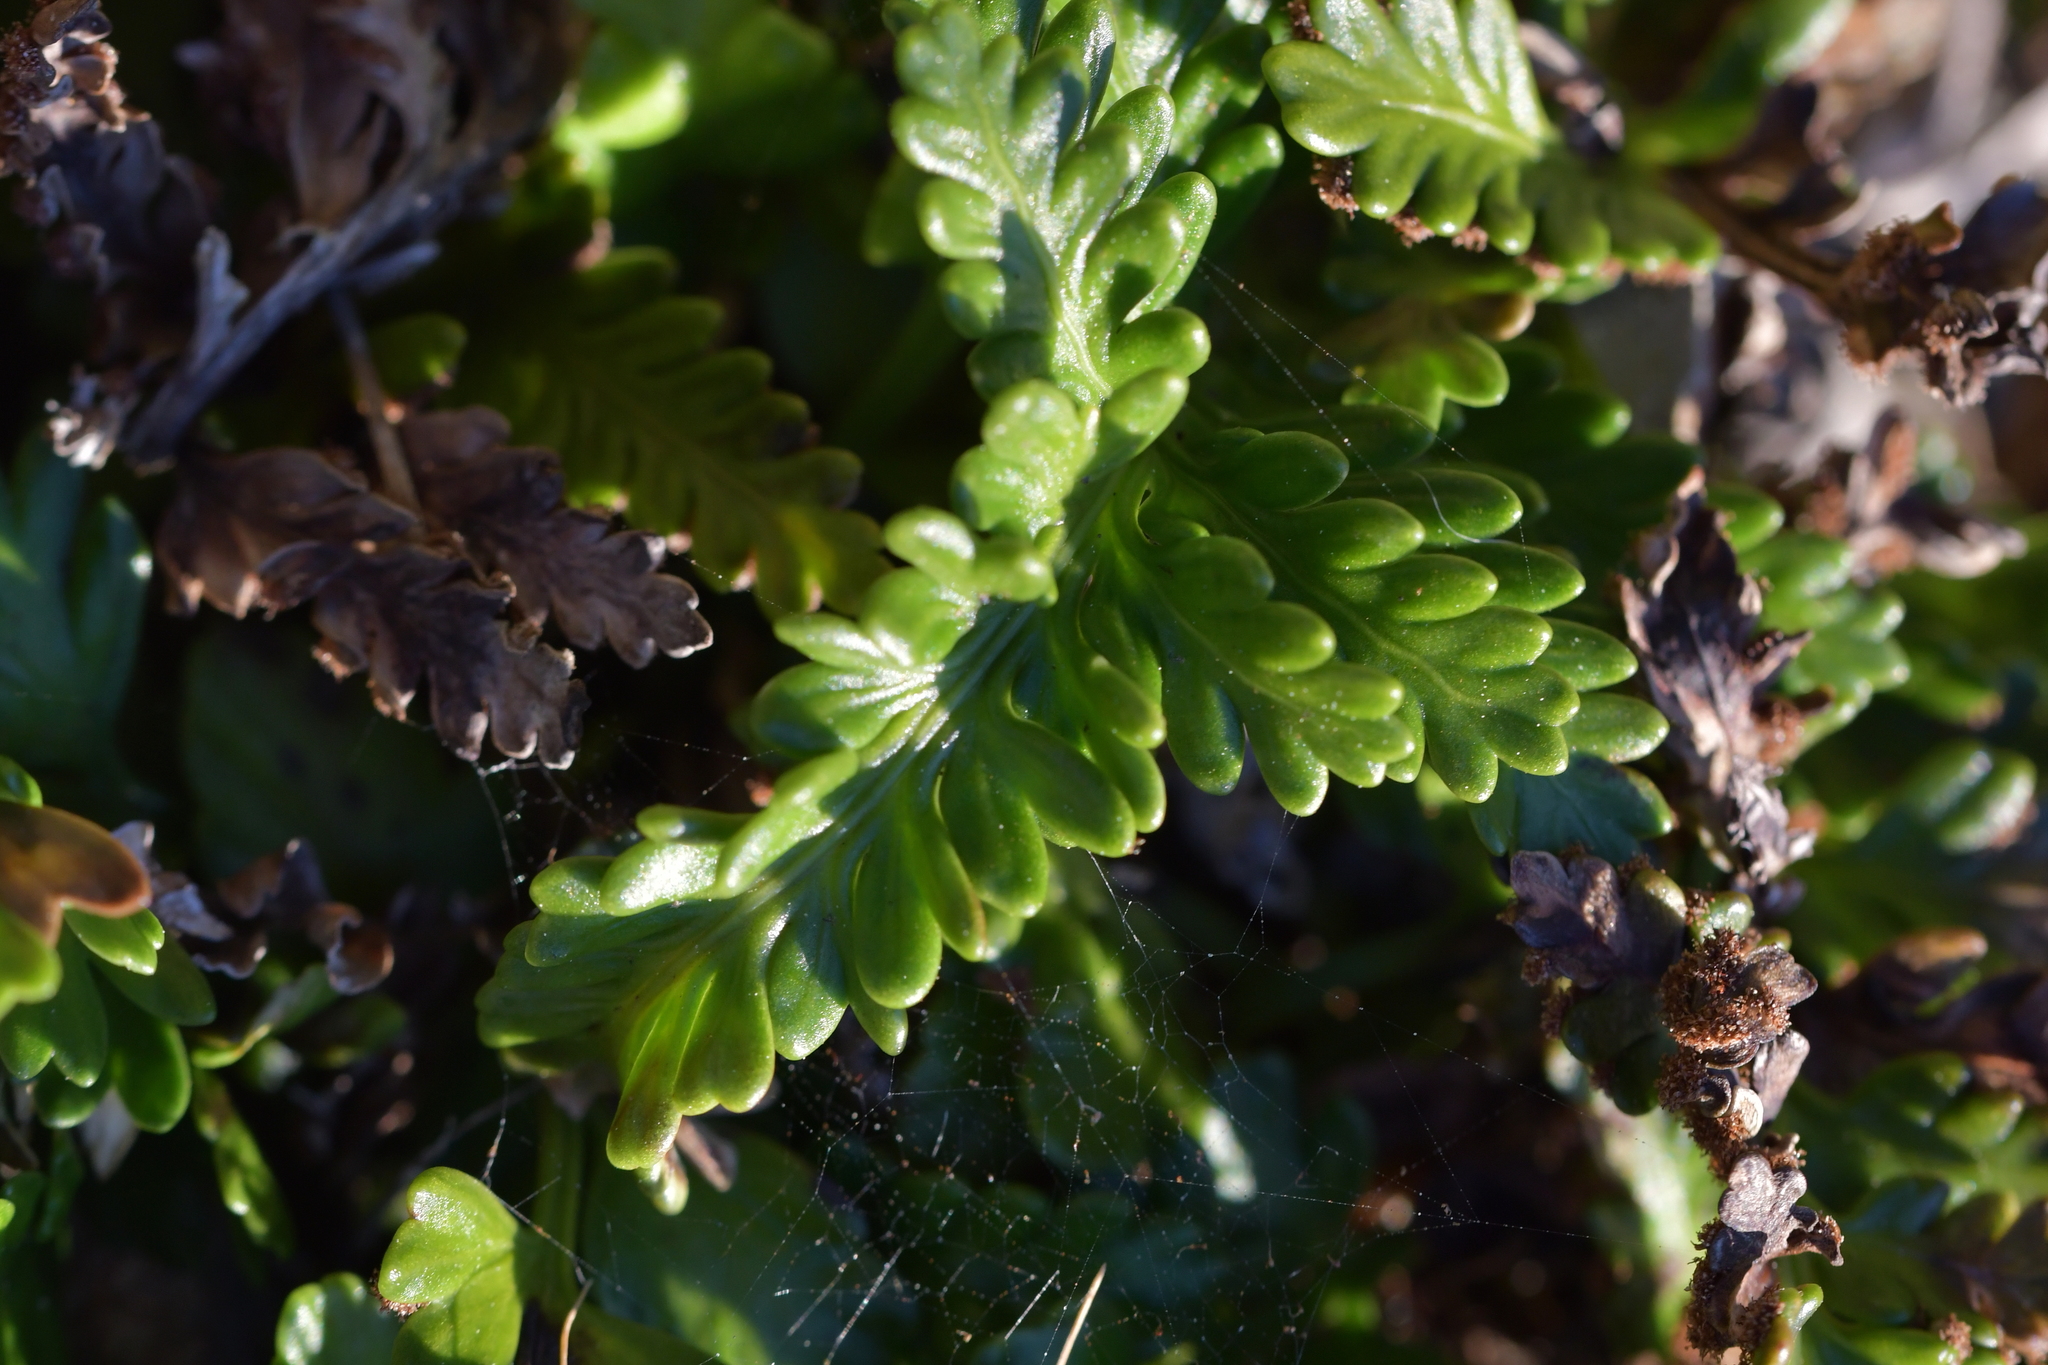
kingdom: Plantae
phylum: Tracheophyta
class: Polypodiopsida
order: Polypodiales
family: Aspleniaceae
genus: Asplenium
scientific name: Asplenium appendiculatum
